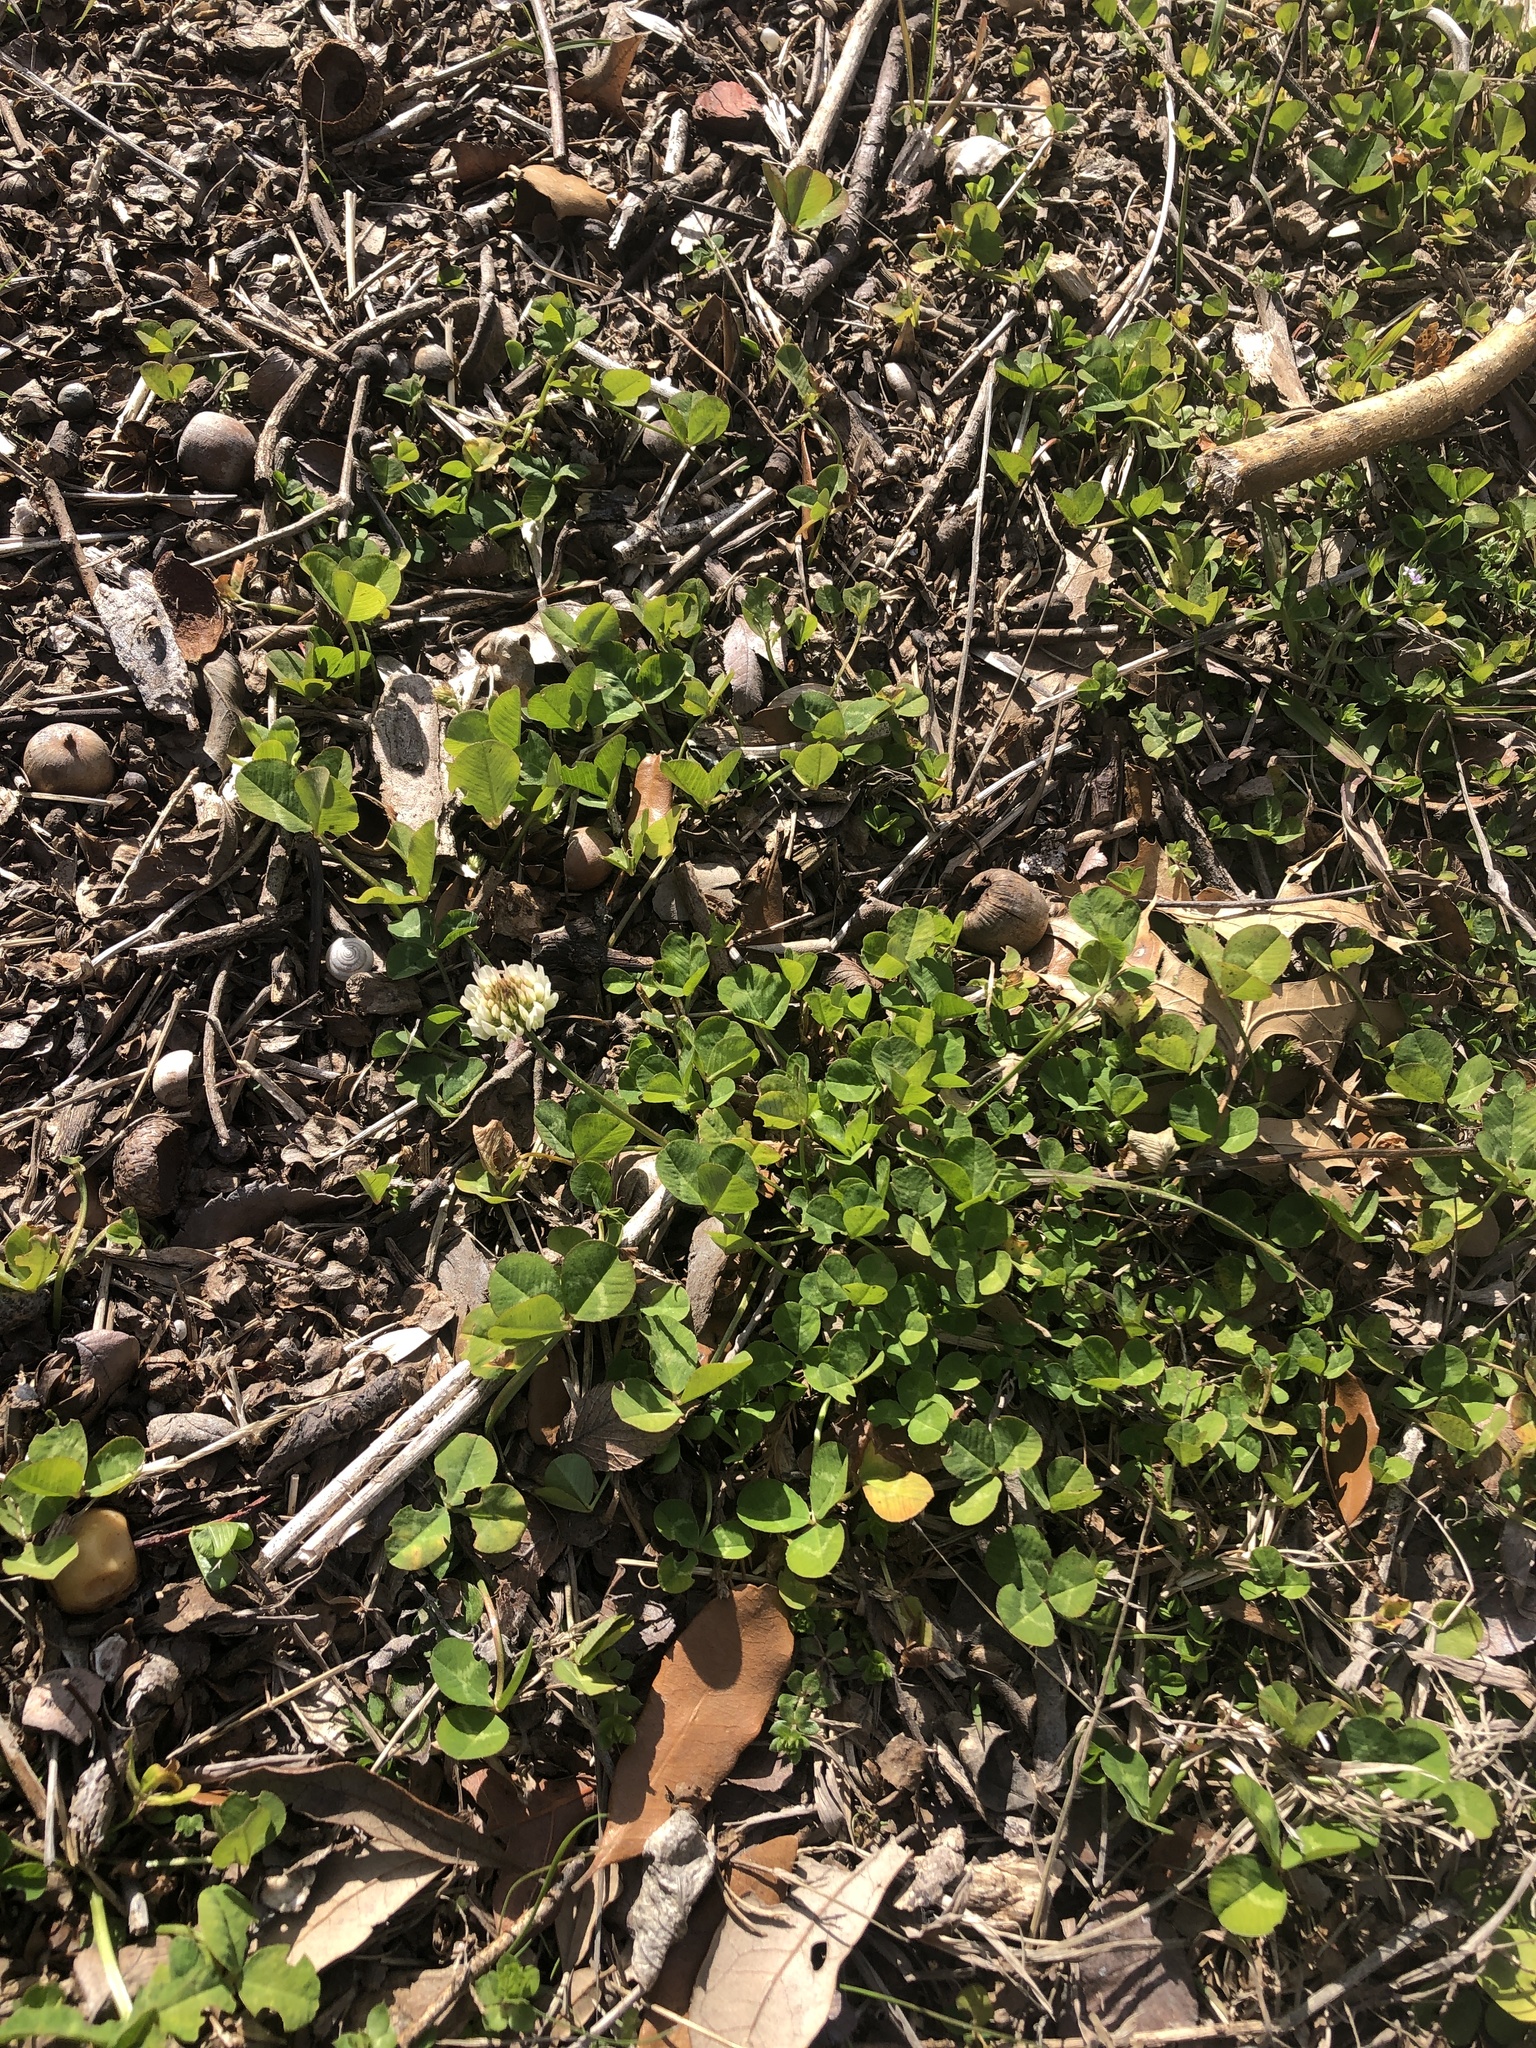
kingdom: Plantae
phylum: Tracheophyta
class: Magnoliopsida
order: Fabales
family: Fabaceae
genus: Trifolium
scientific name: Trifolium repens
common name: White clover
